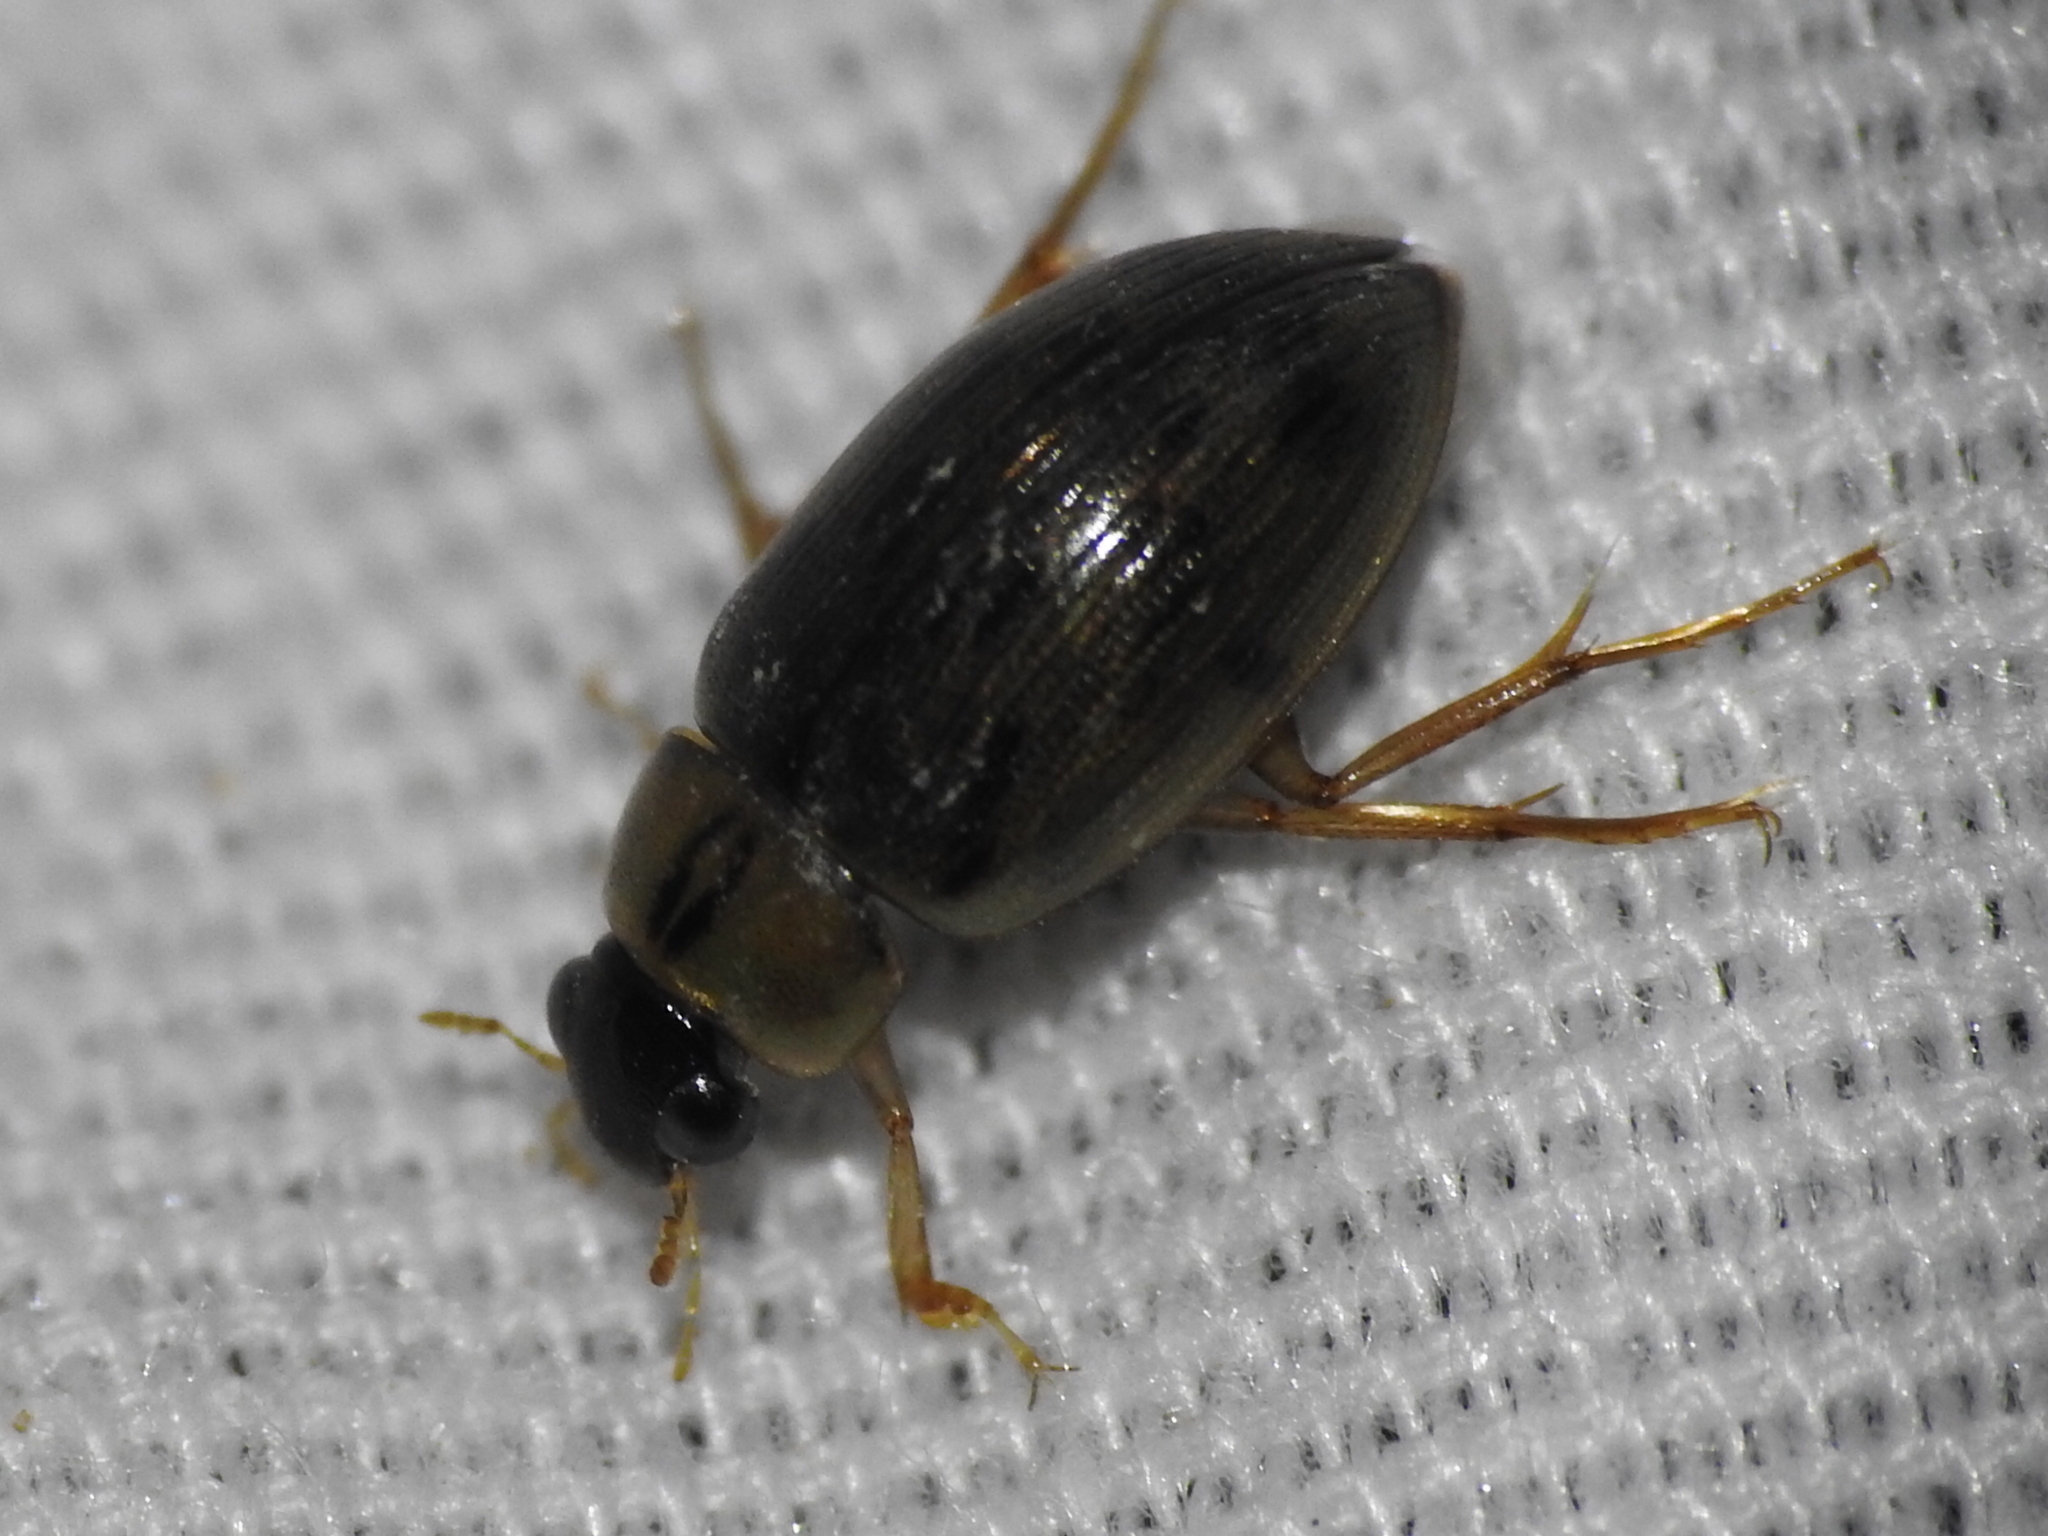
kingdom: Animalia
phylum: Arthropoda
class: Insecta
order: Coleoptera
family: Hydrophilidae
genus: Berosus
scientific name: Berosus
